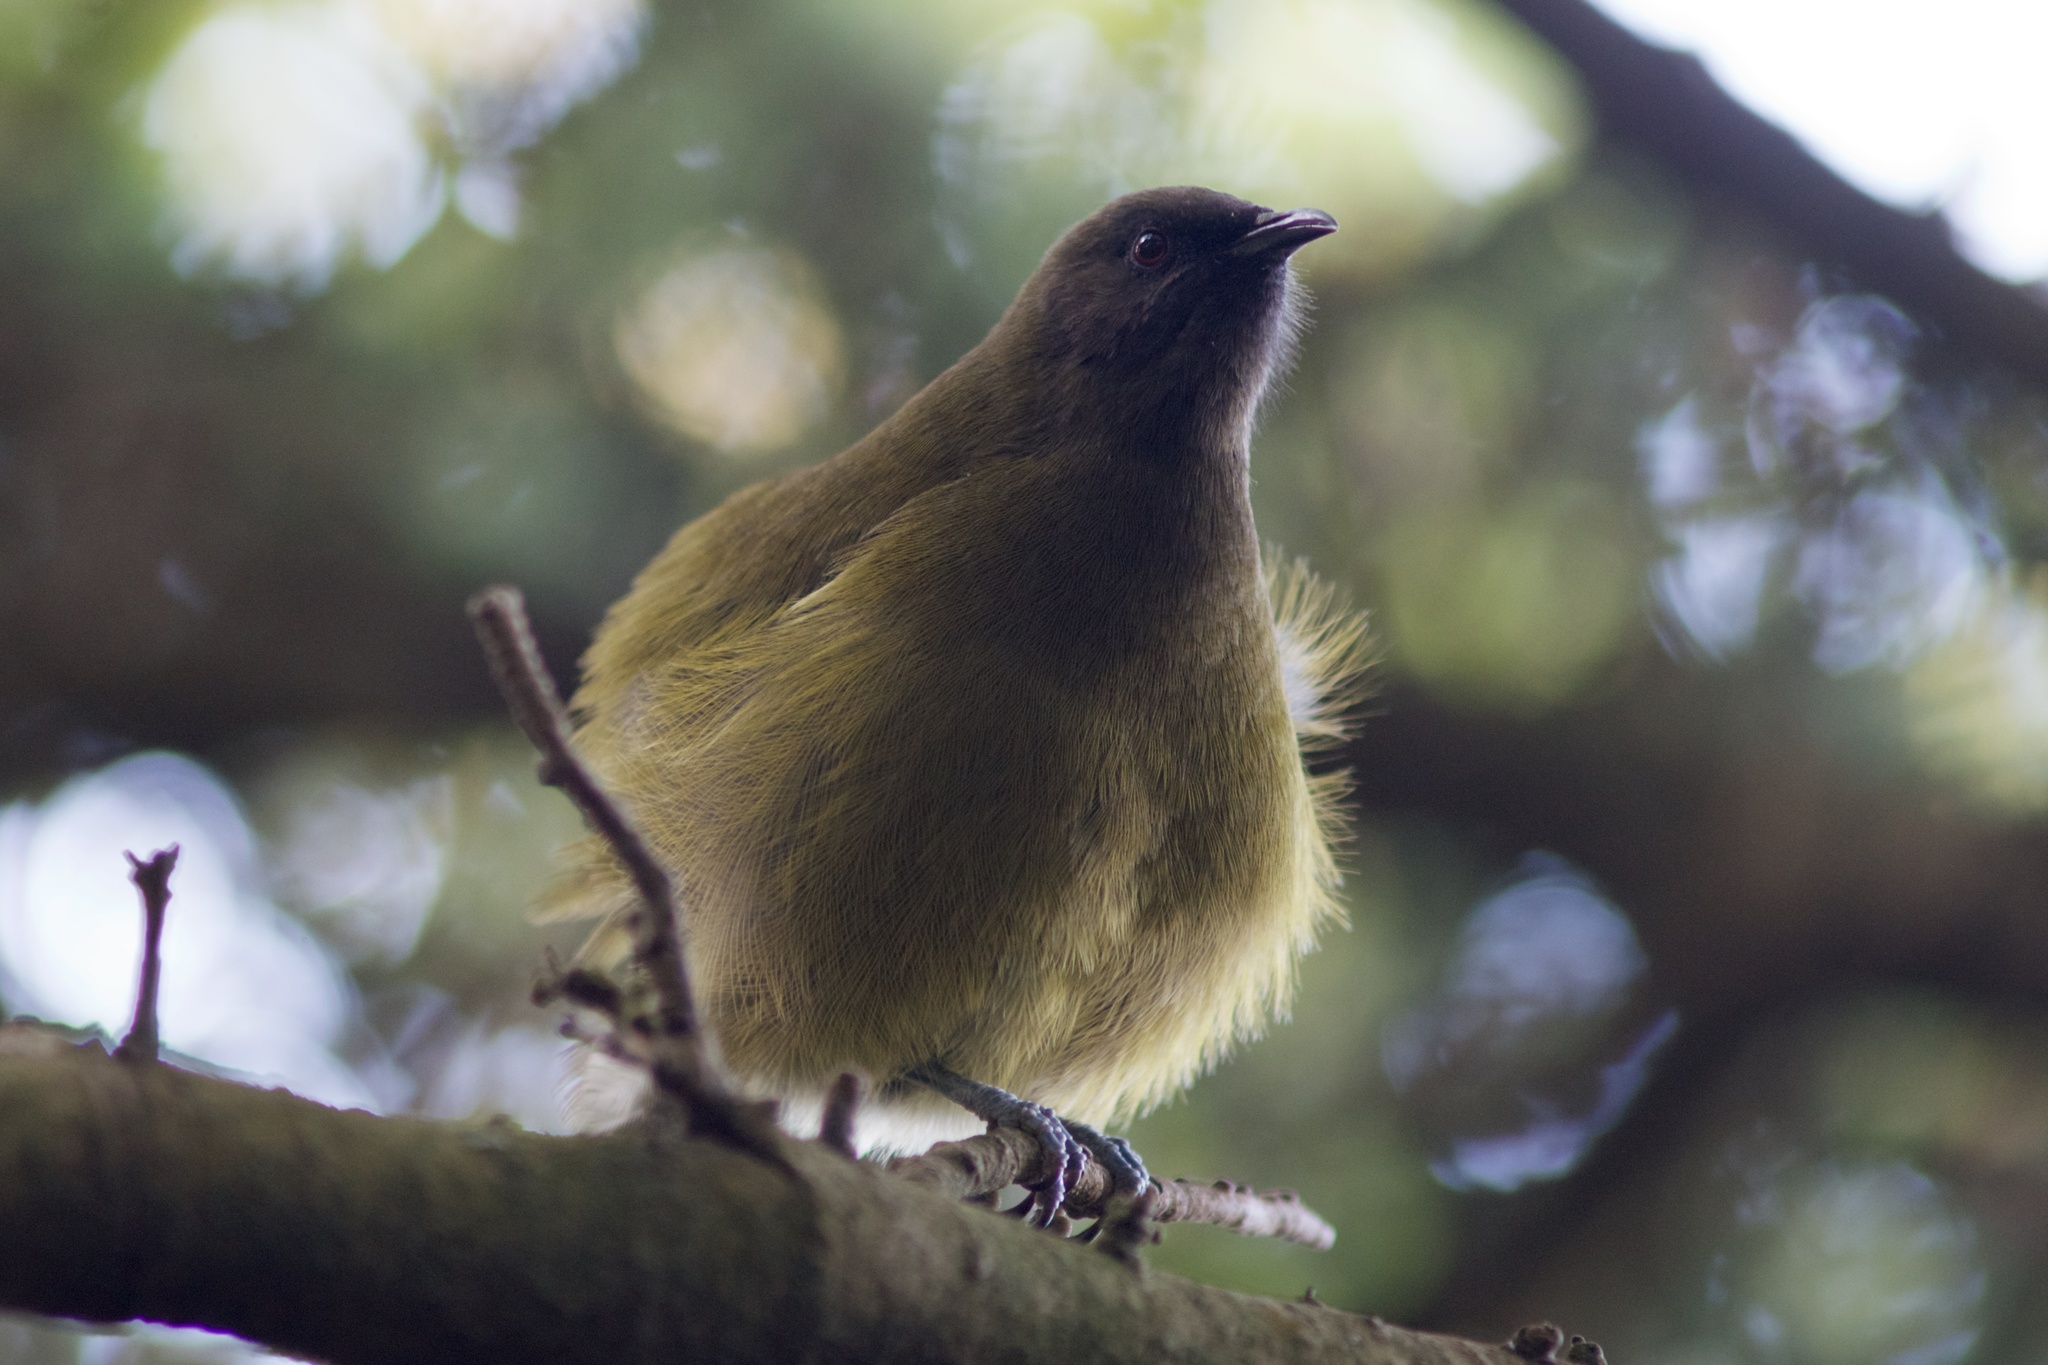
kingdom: Animalia
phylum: Chordata
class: Aves
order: Passeriformes
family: Meliphagidae
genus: Anthornis
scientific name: Anthornis melanura
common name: New zealand bellbird
